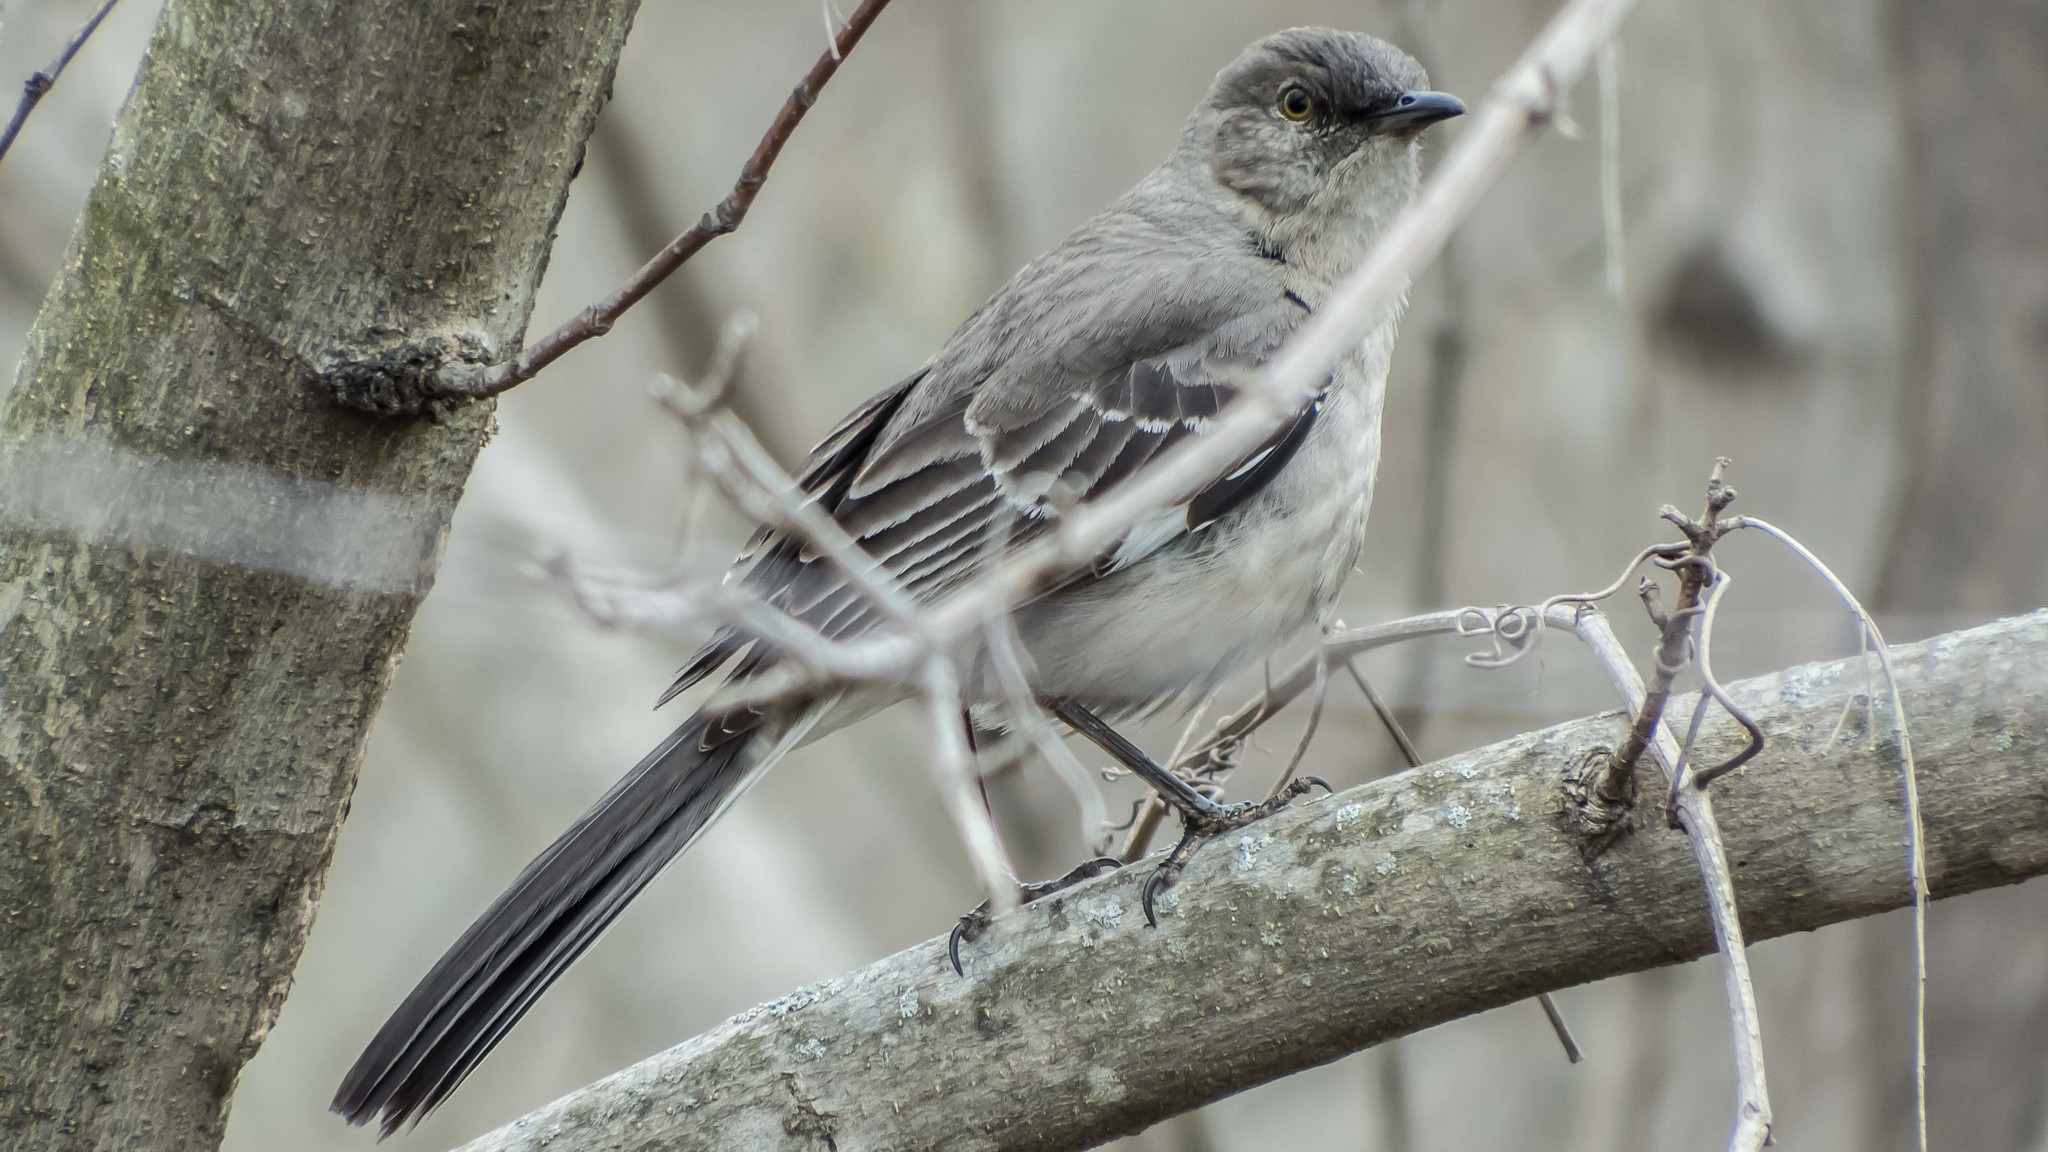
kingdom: Animalia
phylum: Chordata
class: Aves
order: Passeriformes
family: Mimidae
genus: Mimus
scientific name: Mimus polyglottos
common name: Northern mockingbird
